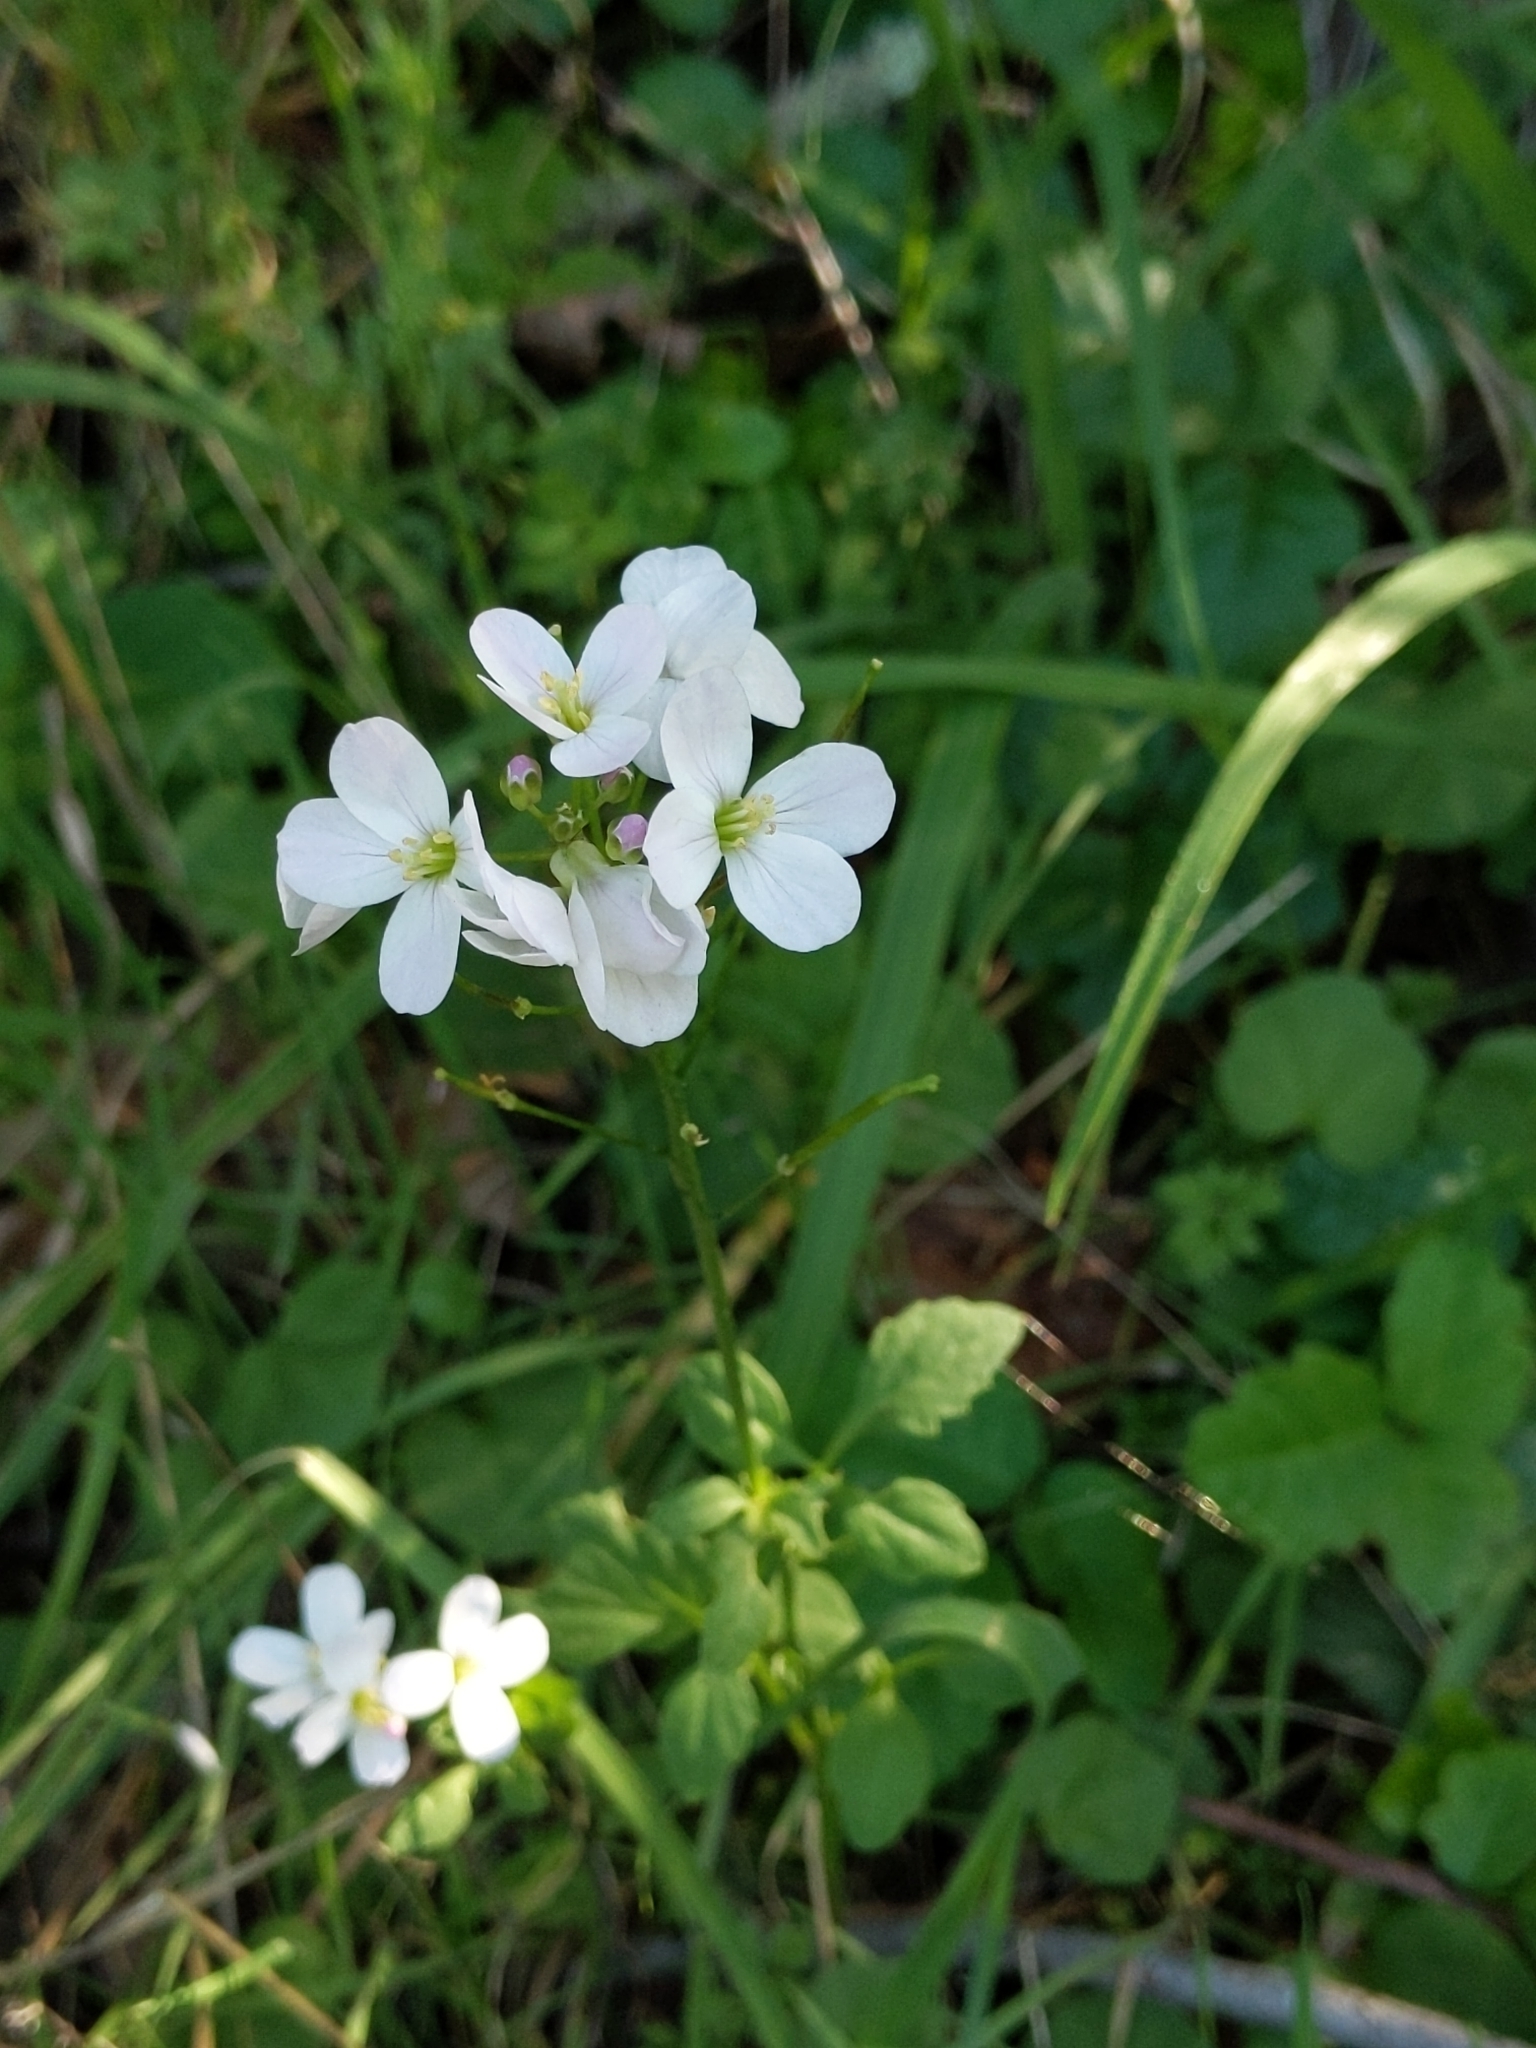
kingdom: Plantae
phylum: Tracheophyta
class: Magnoliopsida
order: Brassicales
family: Brassicaceae
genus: Cardamine
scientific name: Cardamine californica
